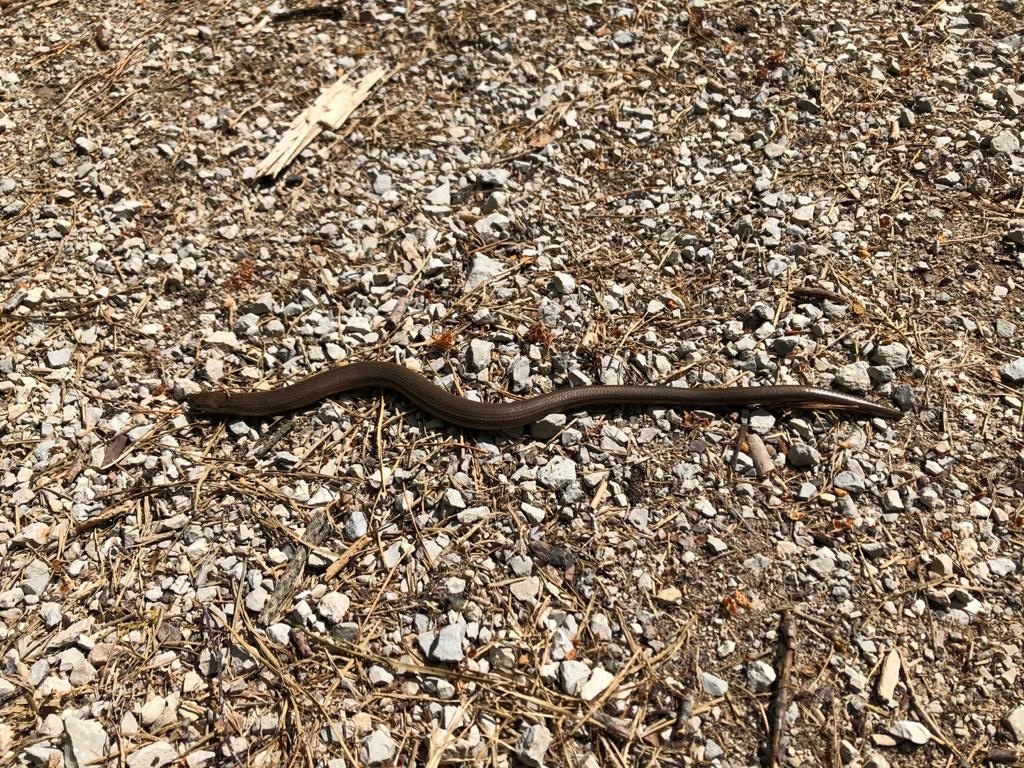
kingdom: Animalia
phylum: Chordata
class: Squamata
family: Anguidae
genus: Anguis
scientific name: Anguis fragilis
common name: Slow worm
